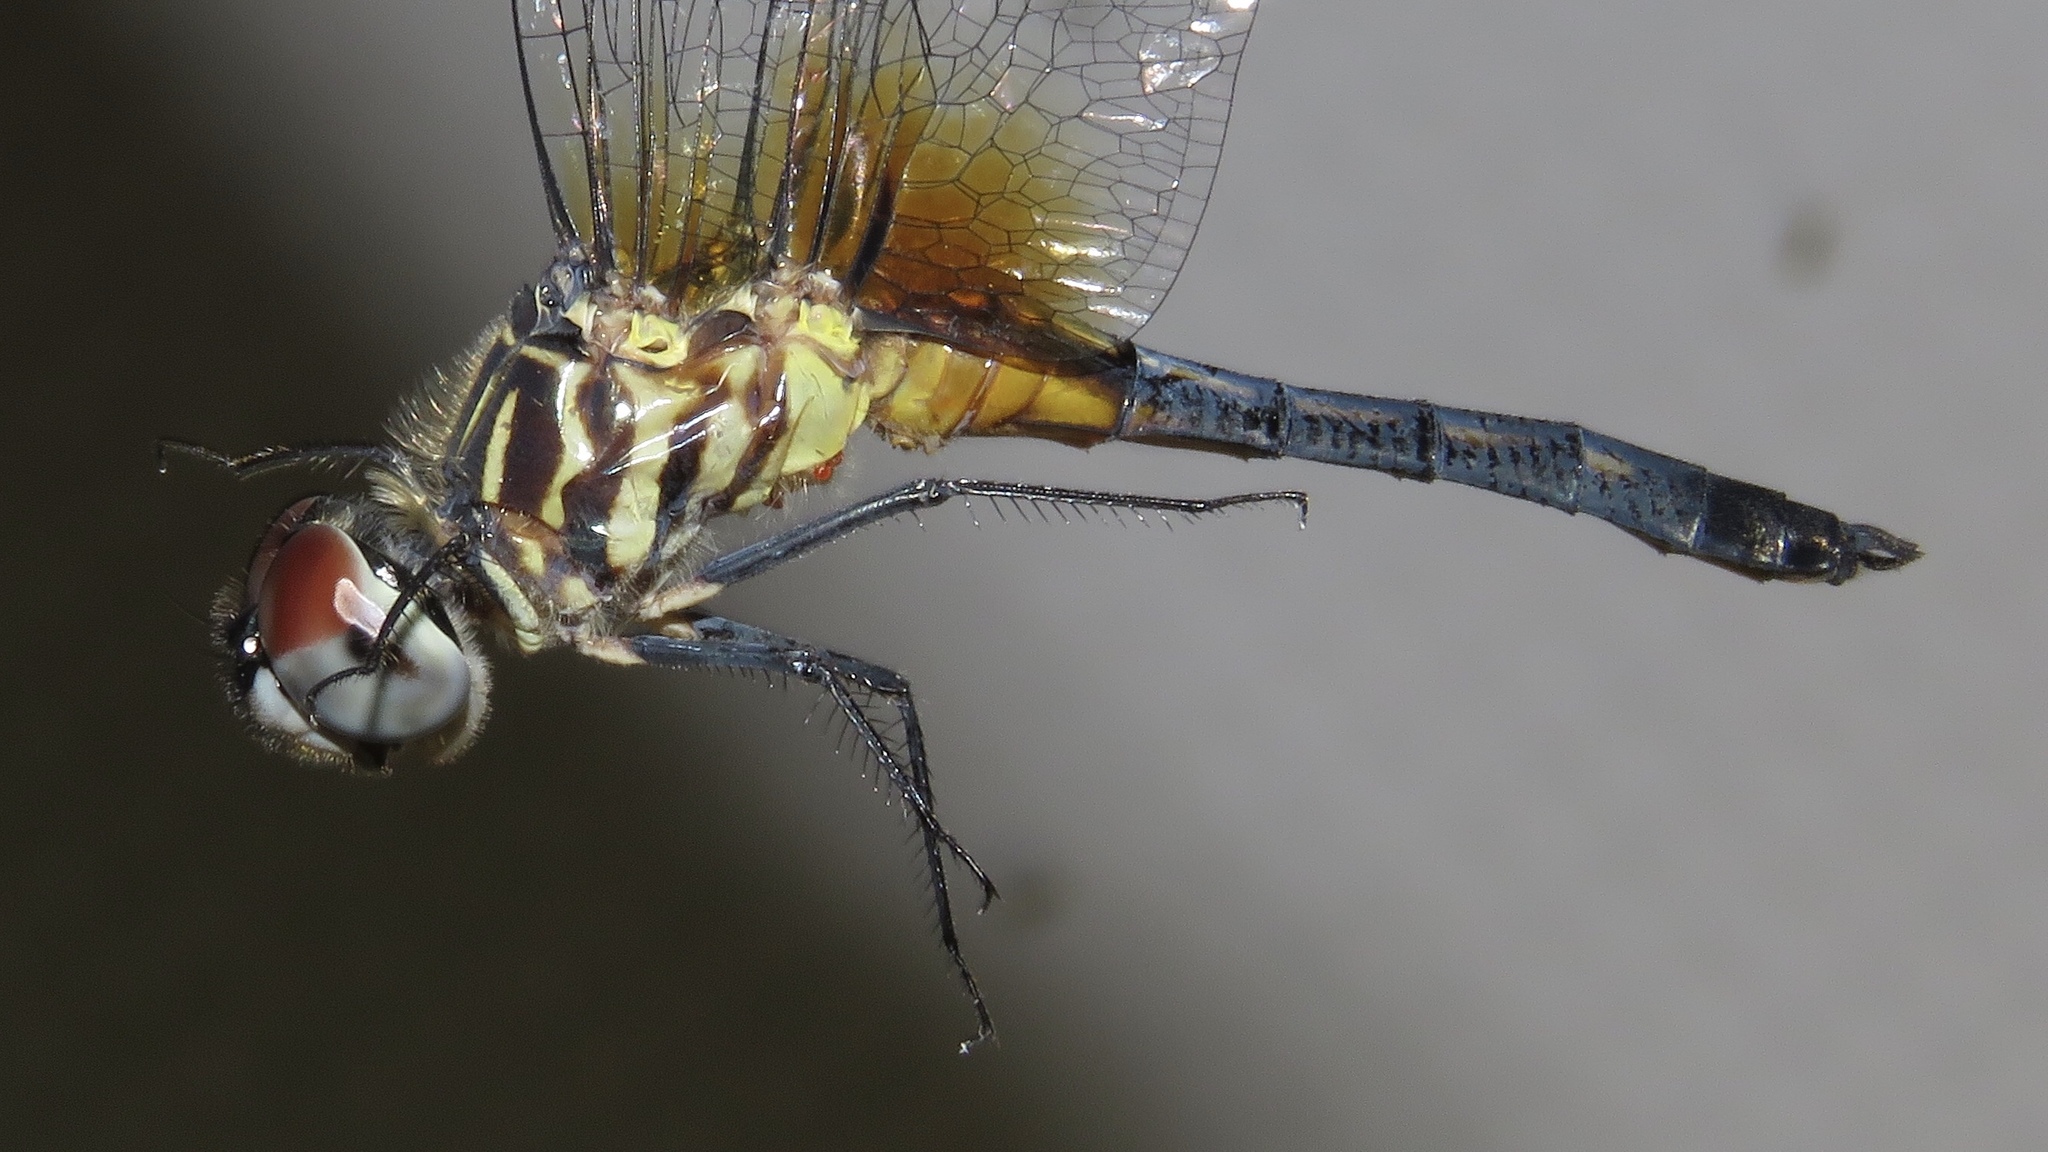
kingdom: Animalia
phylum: Arthropoda
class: Insecta
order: Odonata
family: Libellulidae
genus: Pachydiplax
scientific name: Pachydiplax longipennis
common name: Blue dasher
